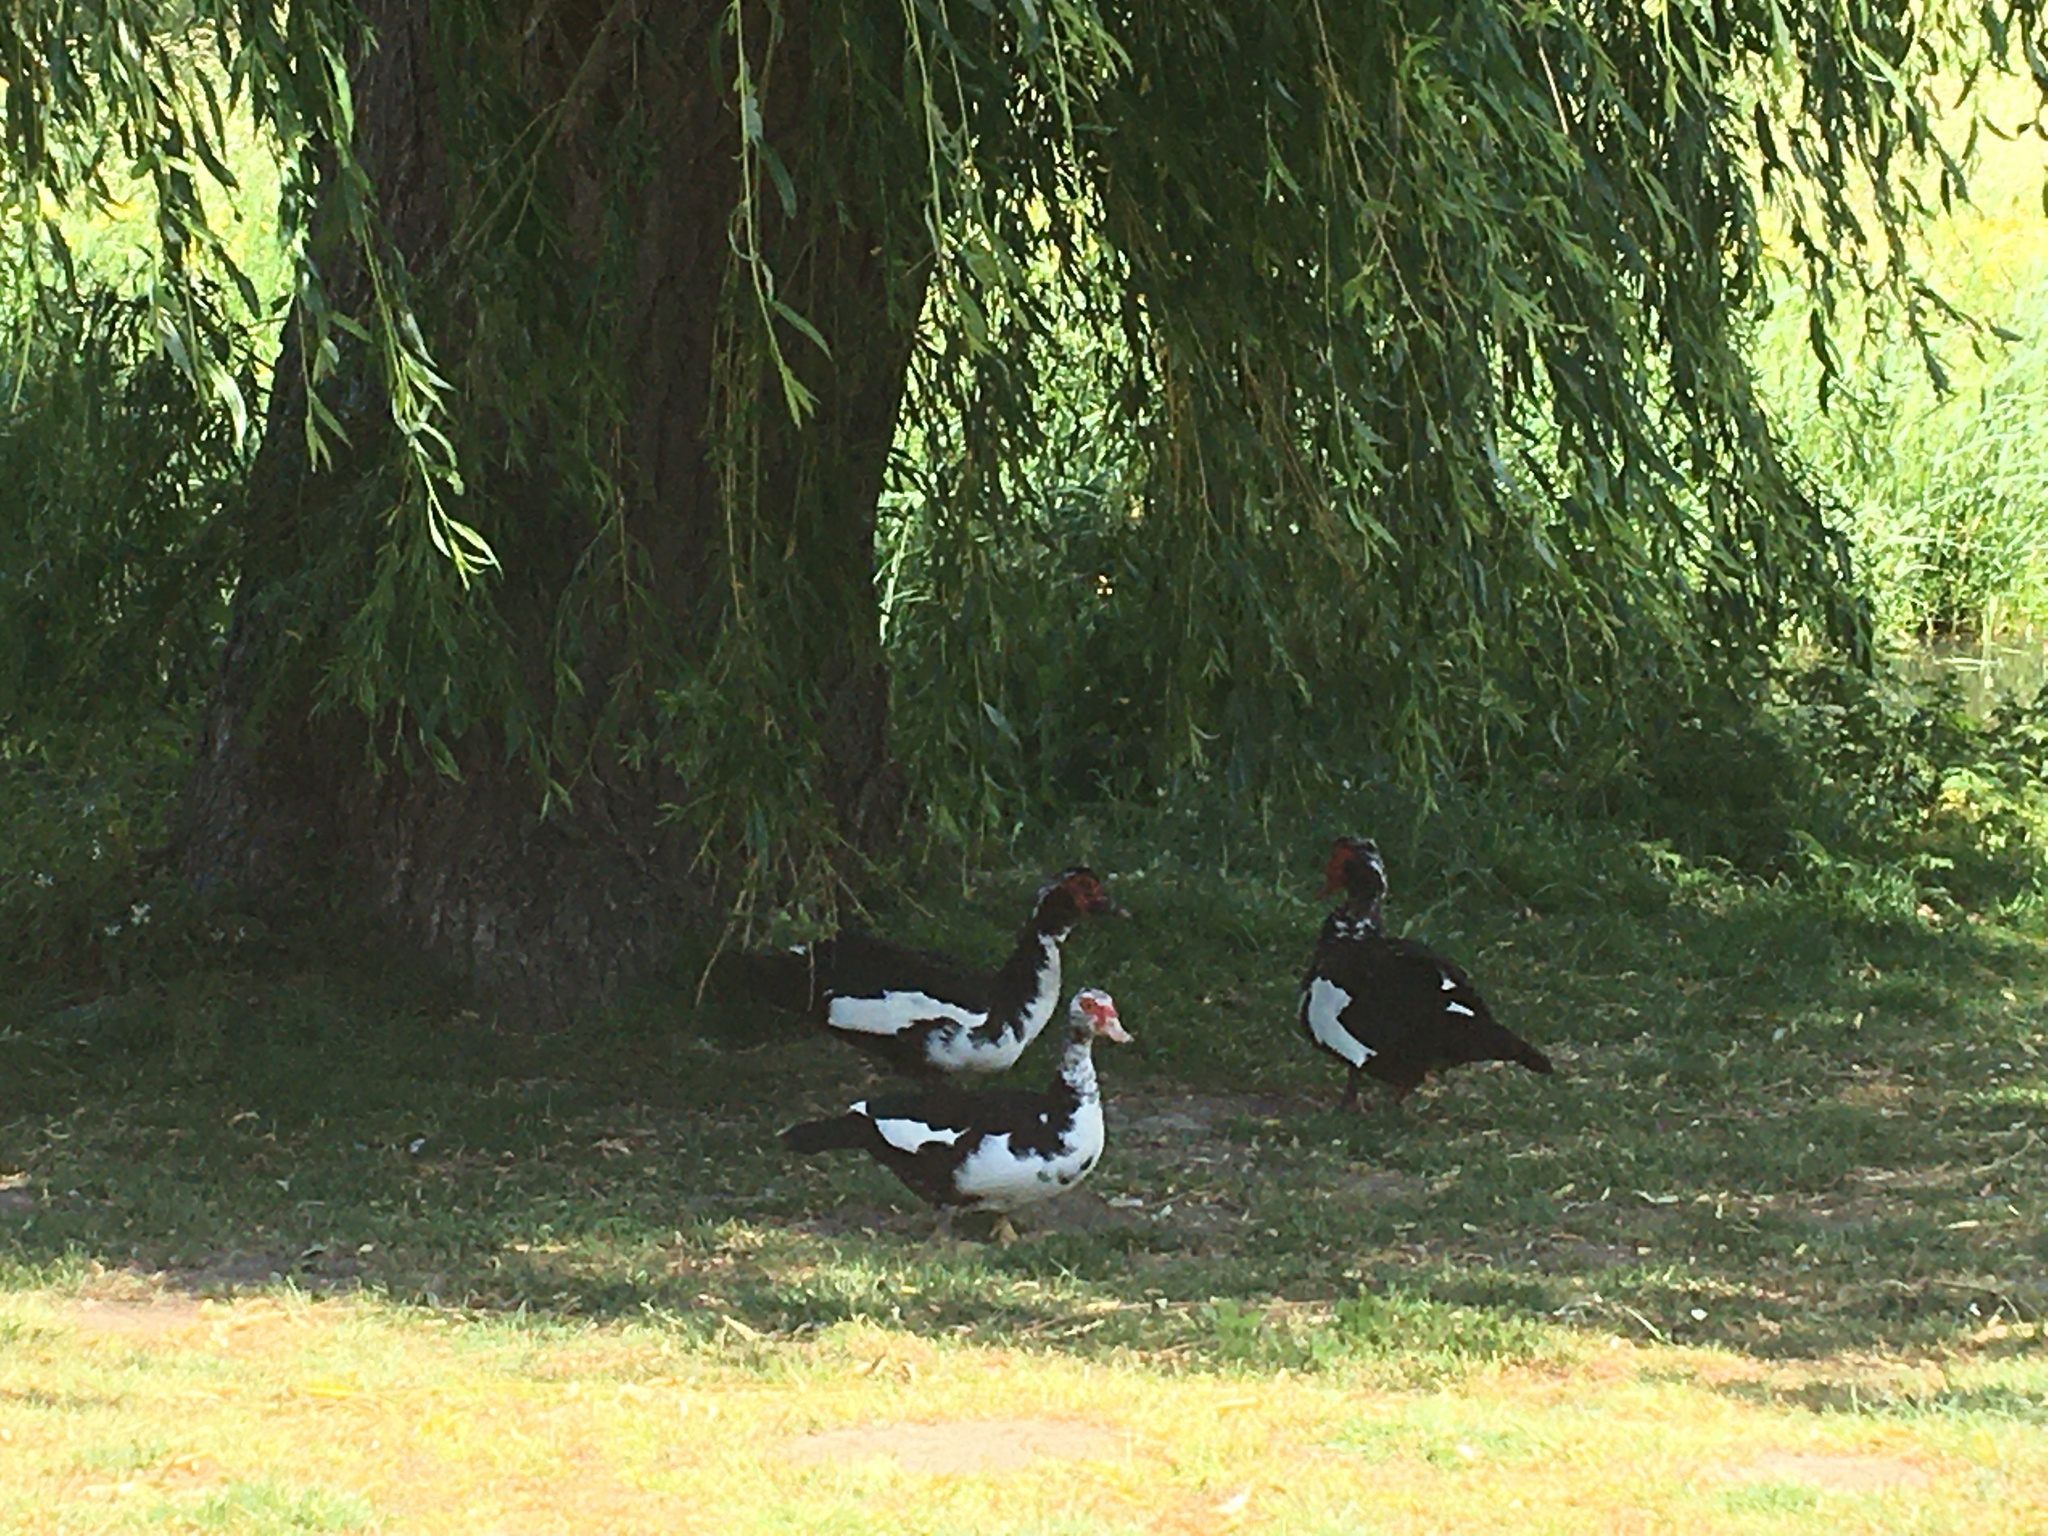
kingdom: Animalia
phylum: Chordata
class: Aves
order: Anseriformes
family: Anatidae
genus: Cairina
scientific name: Cairina moschata
